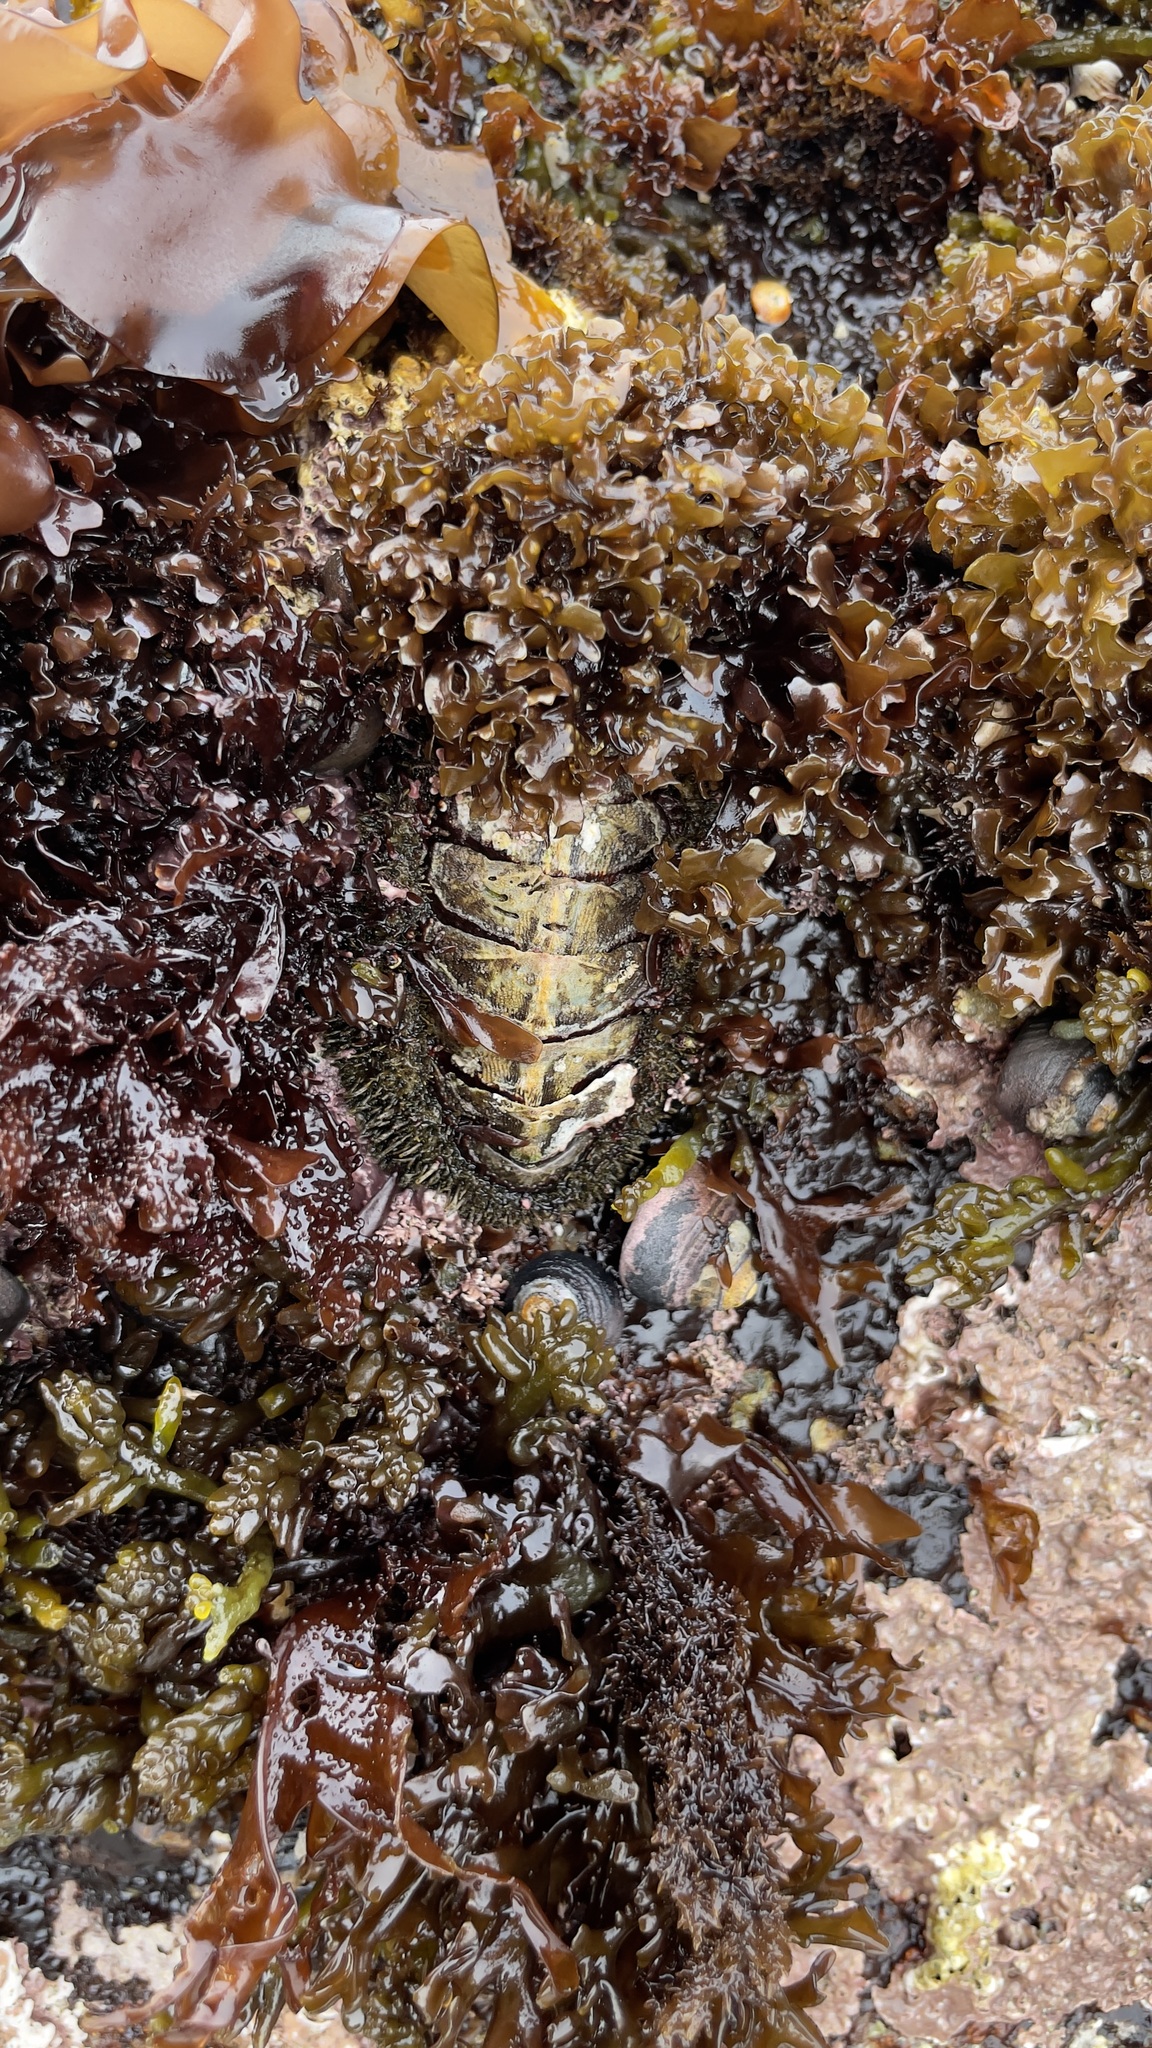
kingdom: Animalia
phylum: Mollusca
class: Polyplacophora
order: Chitonida
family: Mopaliidae
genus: Mopalia
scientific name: Mopalia muscosa
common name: Mossy chiton
